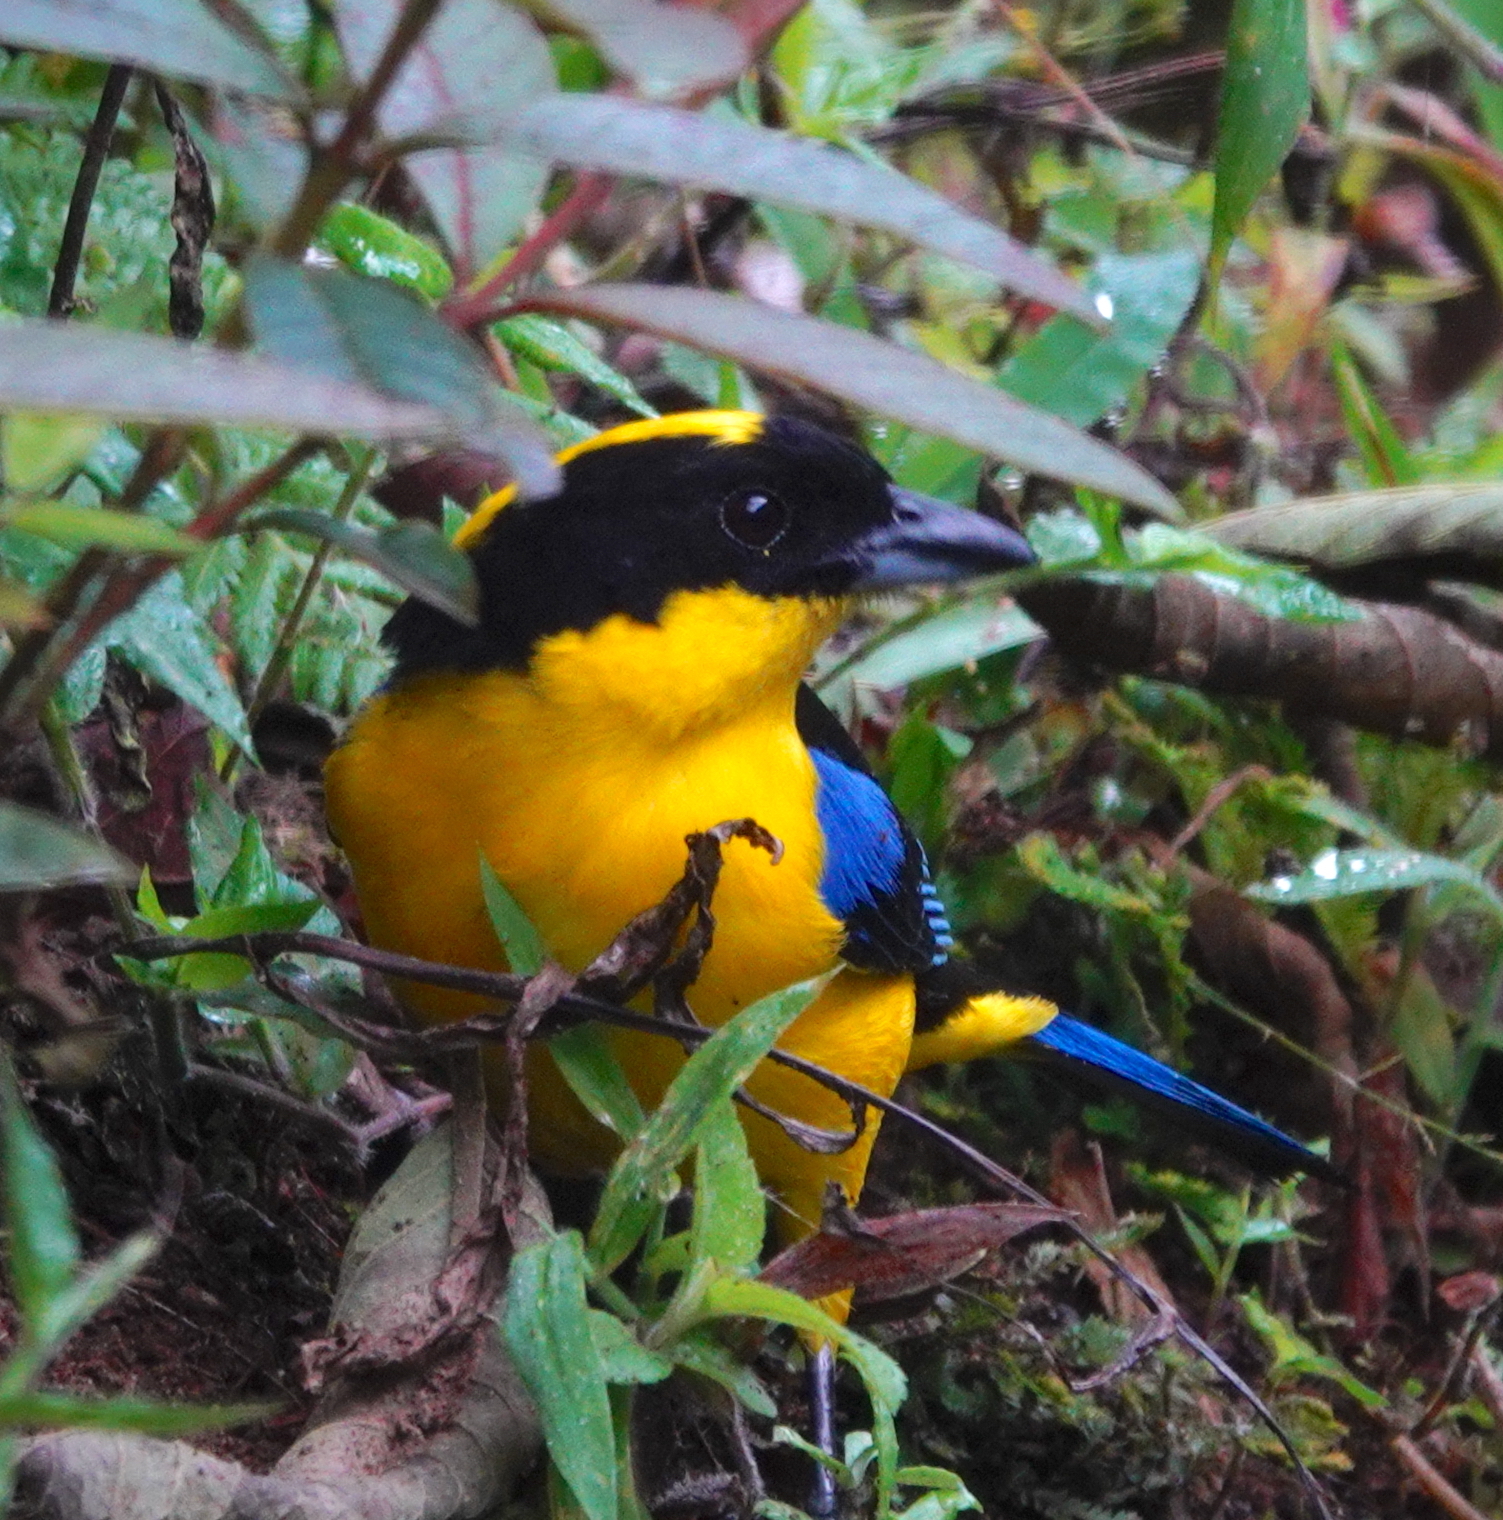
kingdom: Animalia
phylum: Chordata
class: Aves
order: Passeriformes
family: Thraupidae
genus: Anisognathus
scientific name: Anisognathus somptuosus
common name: Blue-winged mountain-tanager
